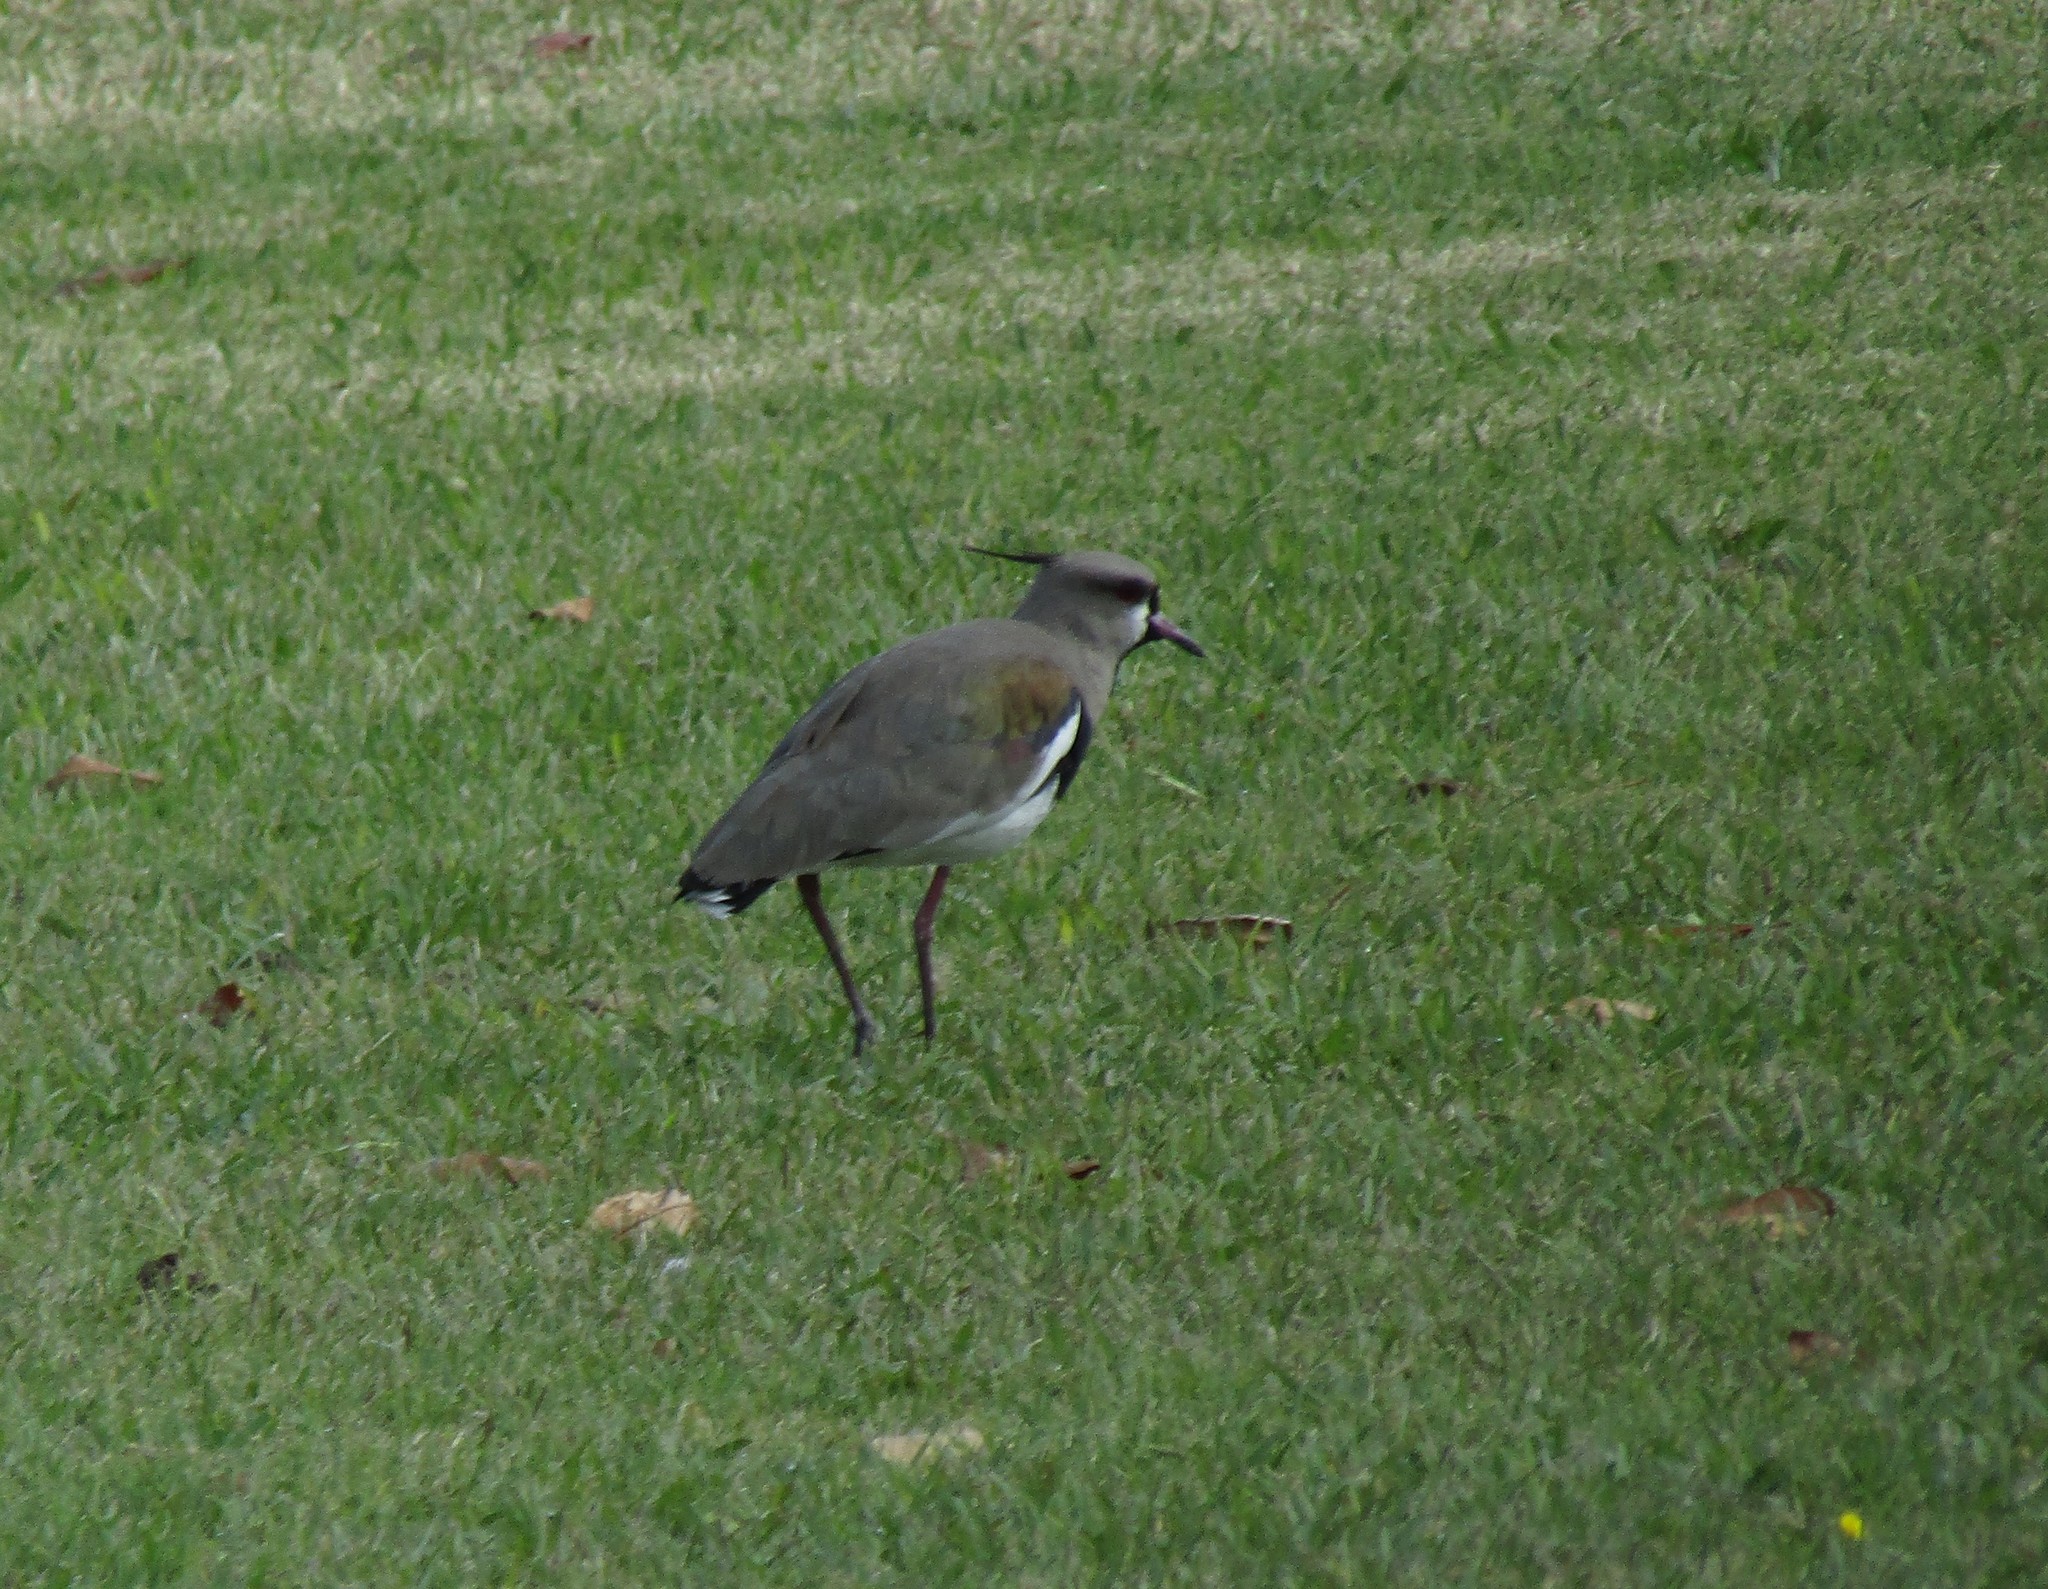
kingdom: Animalia
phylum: Chordata
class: Aves
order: Charadriiformes
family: Charadriidae
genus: Vanellus
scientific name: Vanellus chilensis
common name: Southern lapwing
